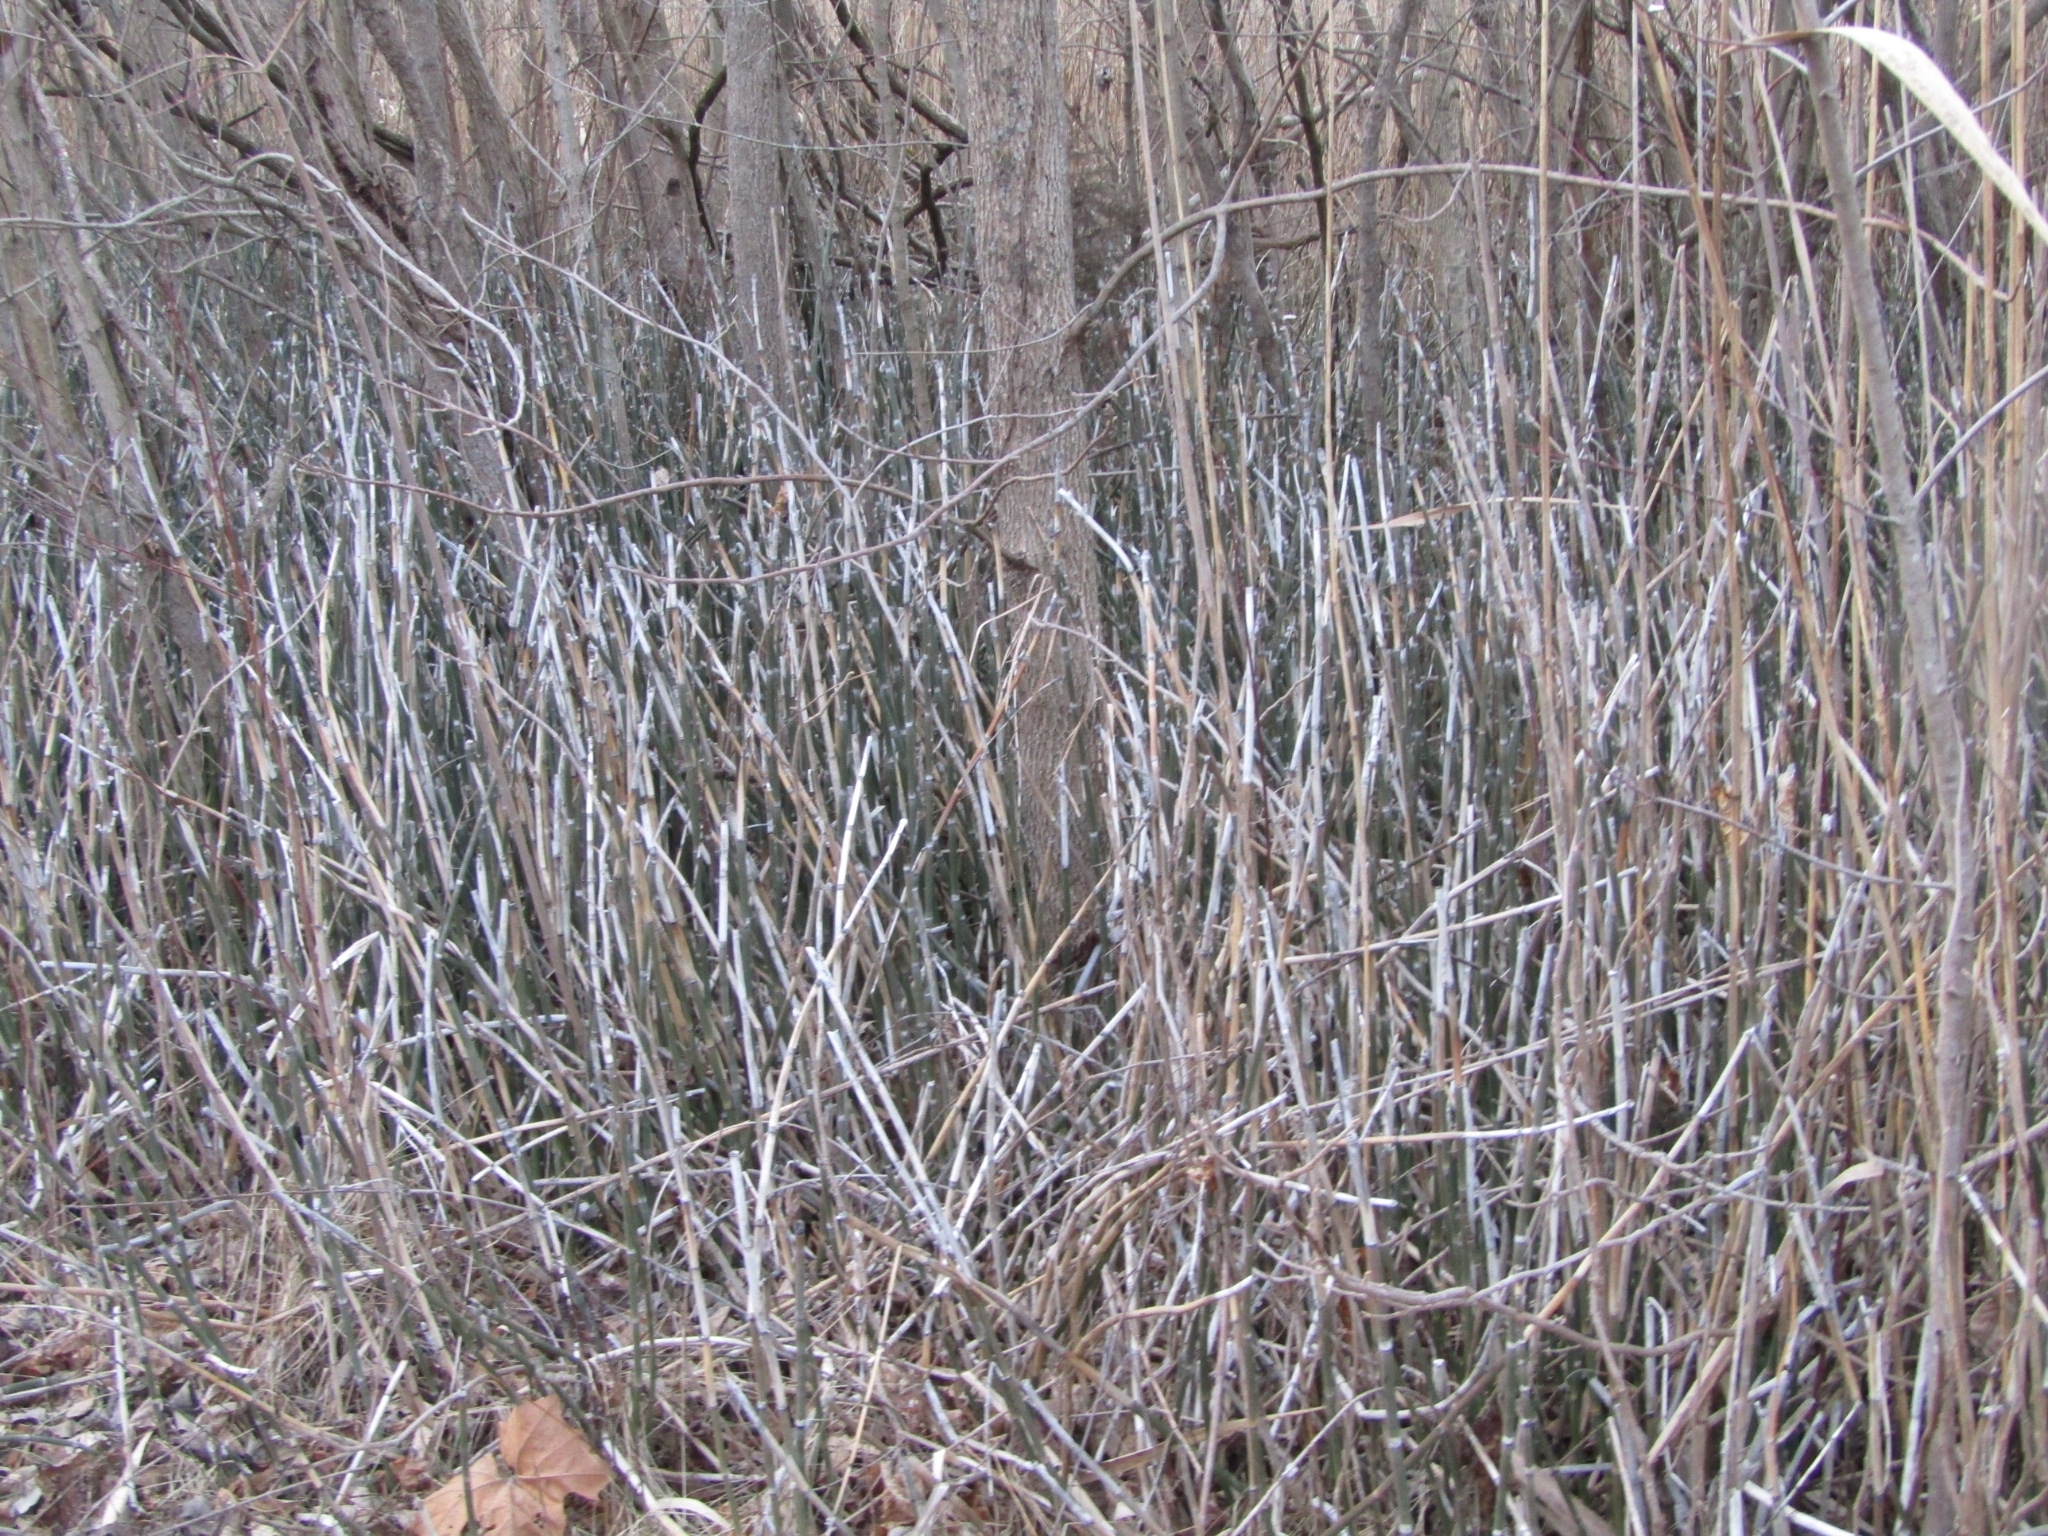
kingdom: Plantae
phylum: Tracheophyta
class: Polypodiopsida
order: Equisetales
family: Equisetaceae
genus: Equisetum
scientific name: Equisetum praealtum
